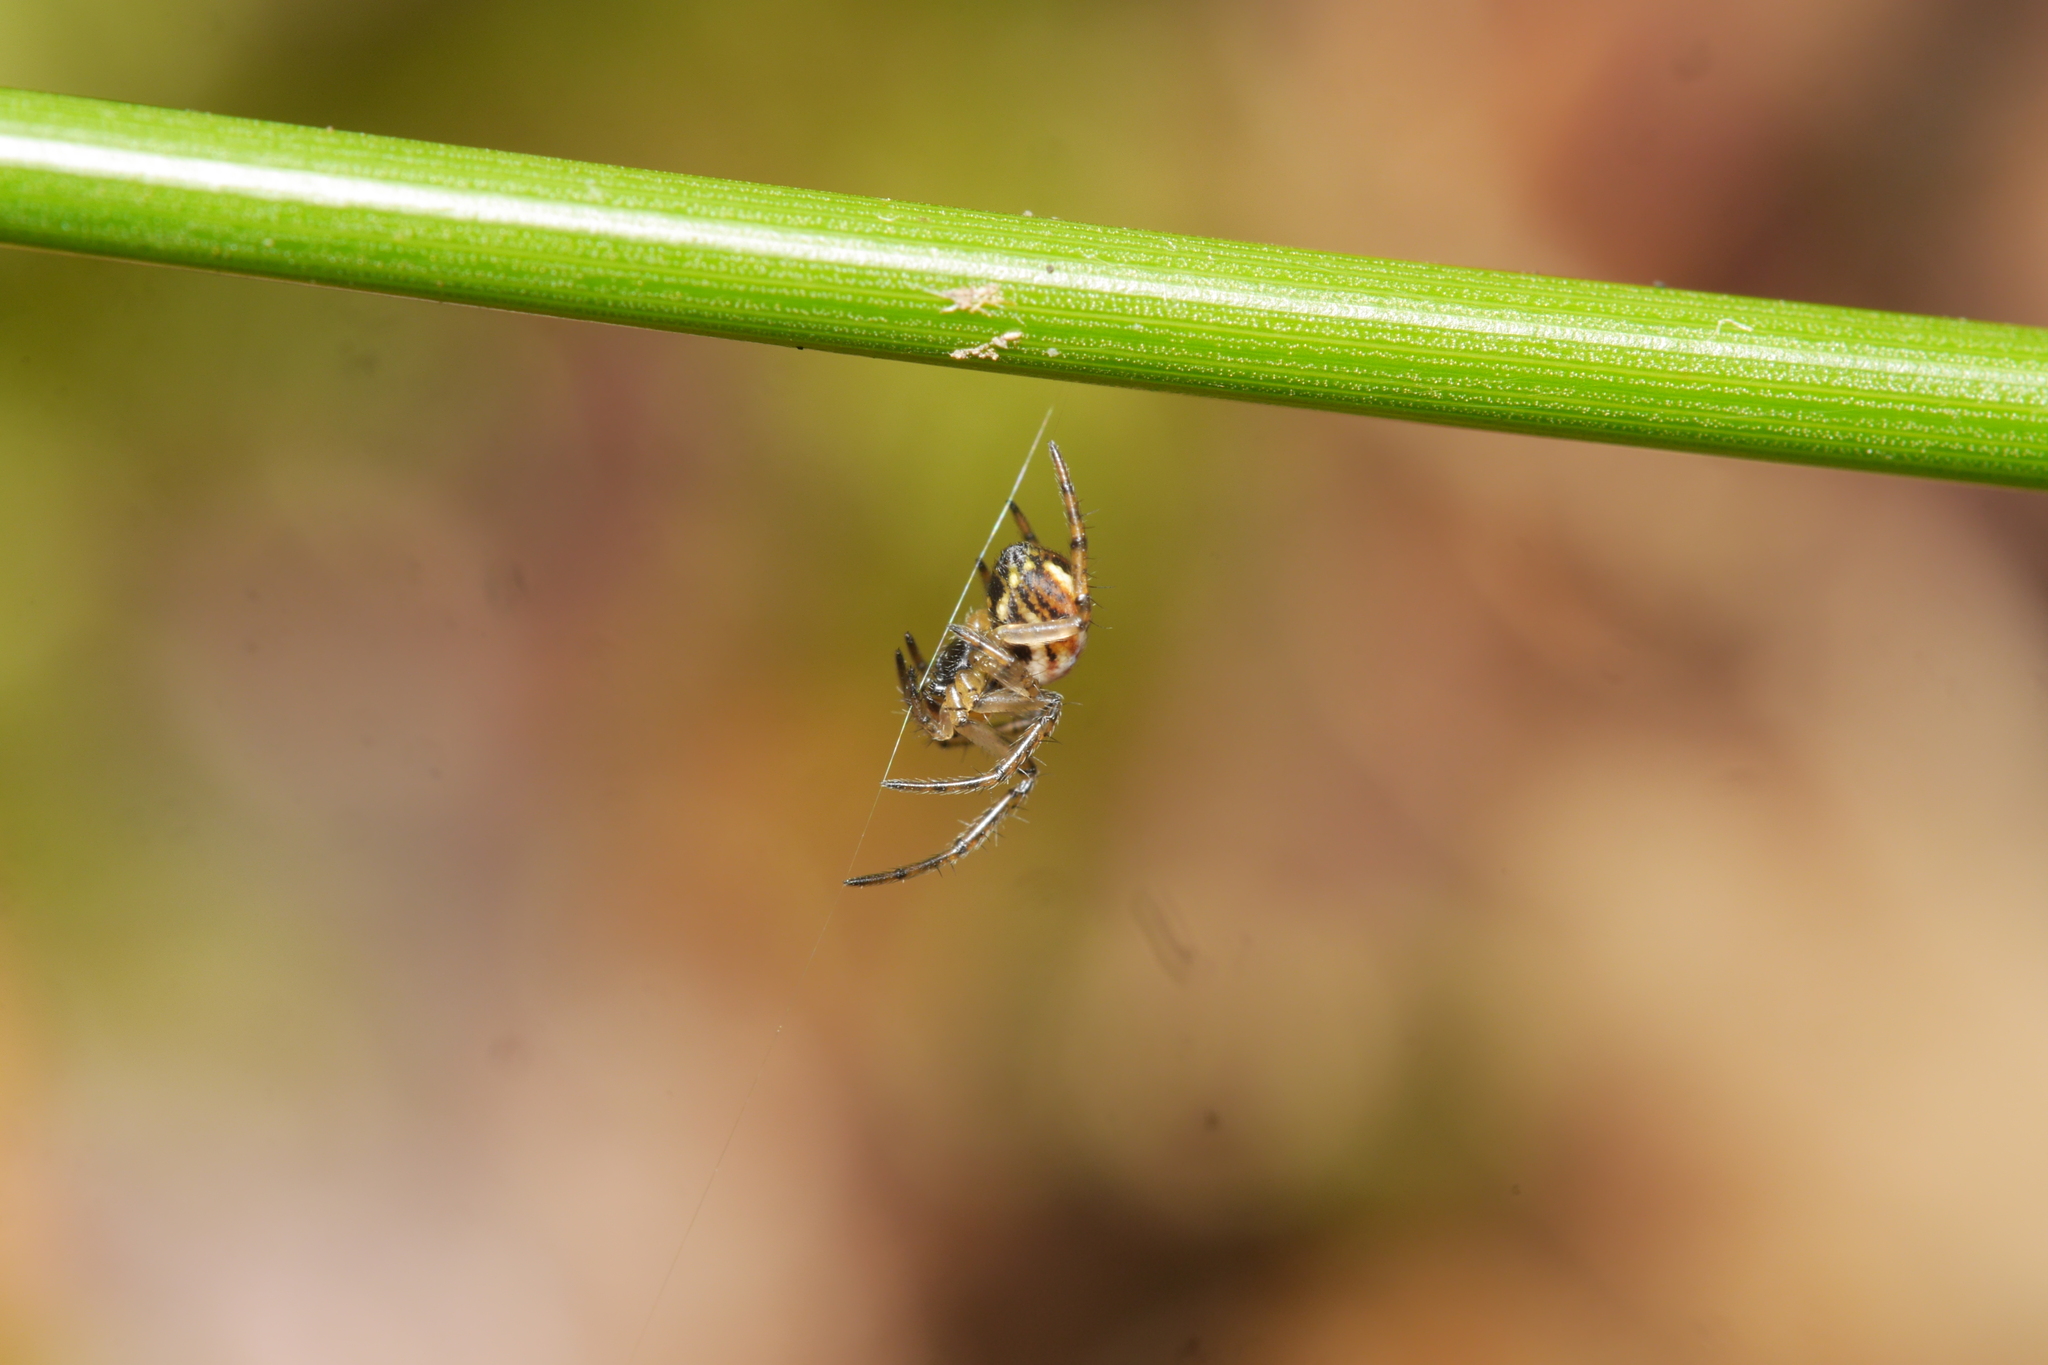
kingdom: Animalia
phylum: Arthropoda
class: Arachnida
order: Araneae
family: Araneidae
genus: Mangora
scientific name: Mangora acalypha
